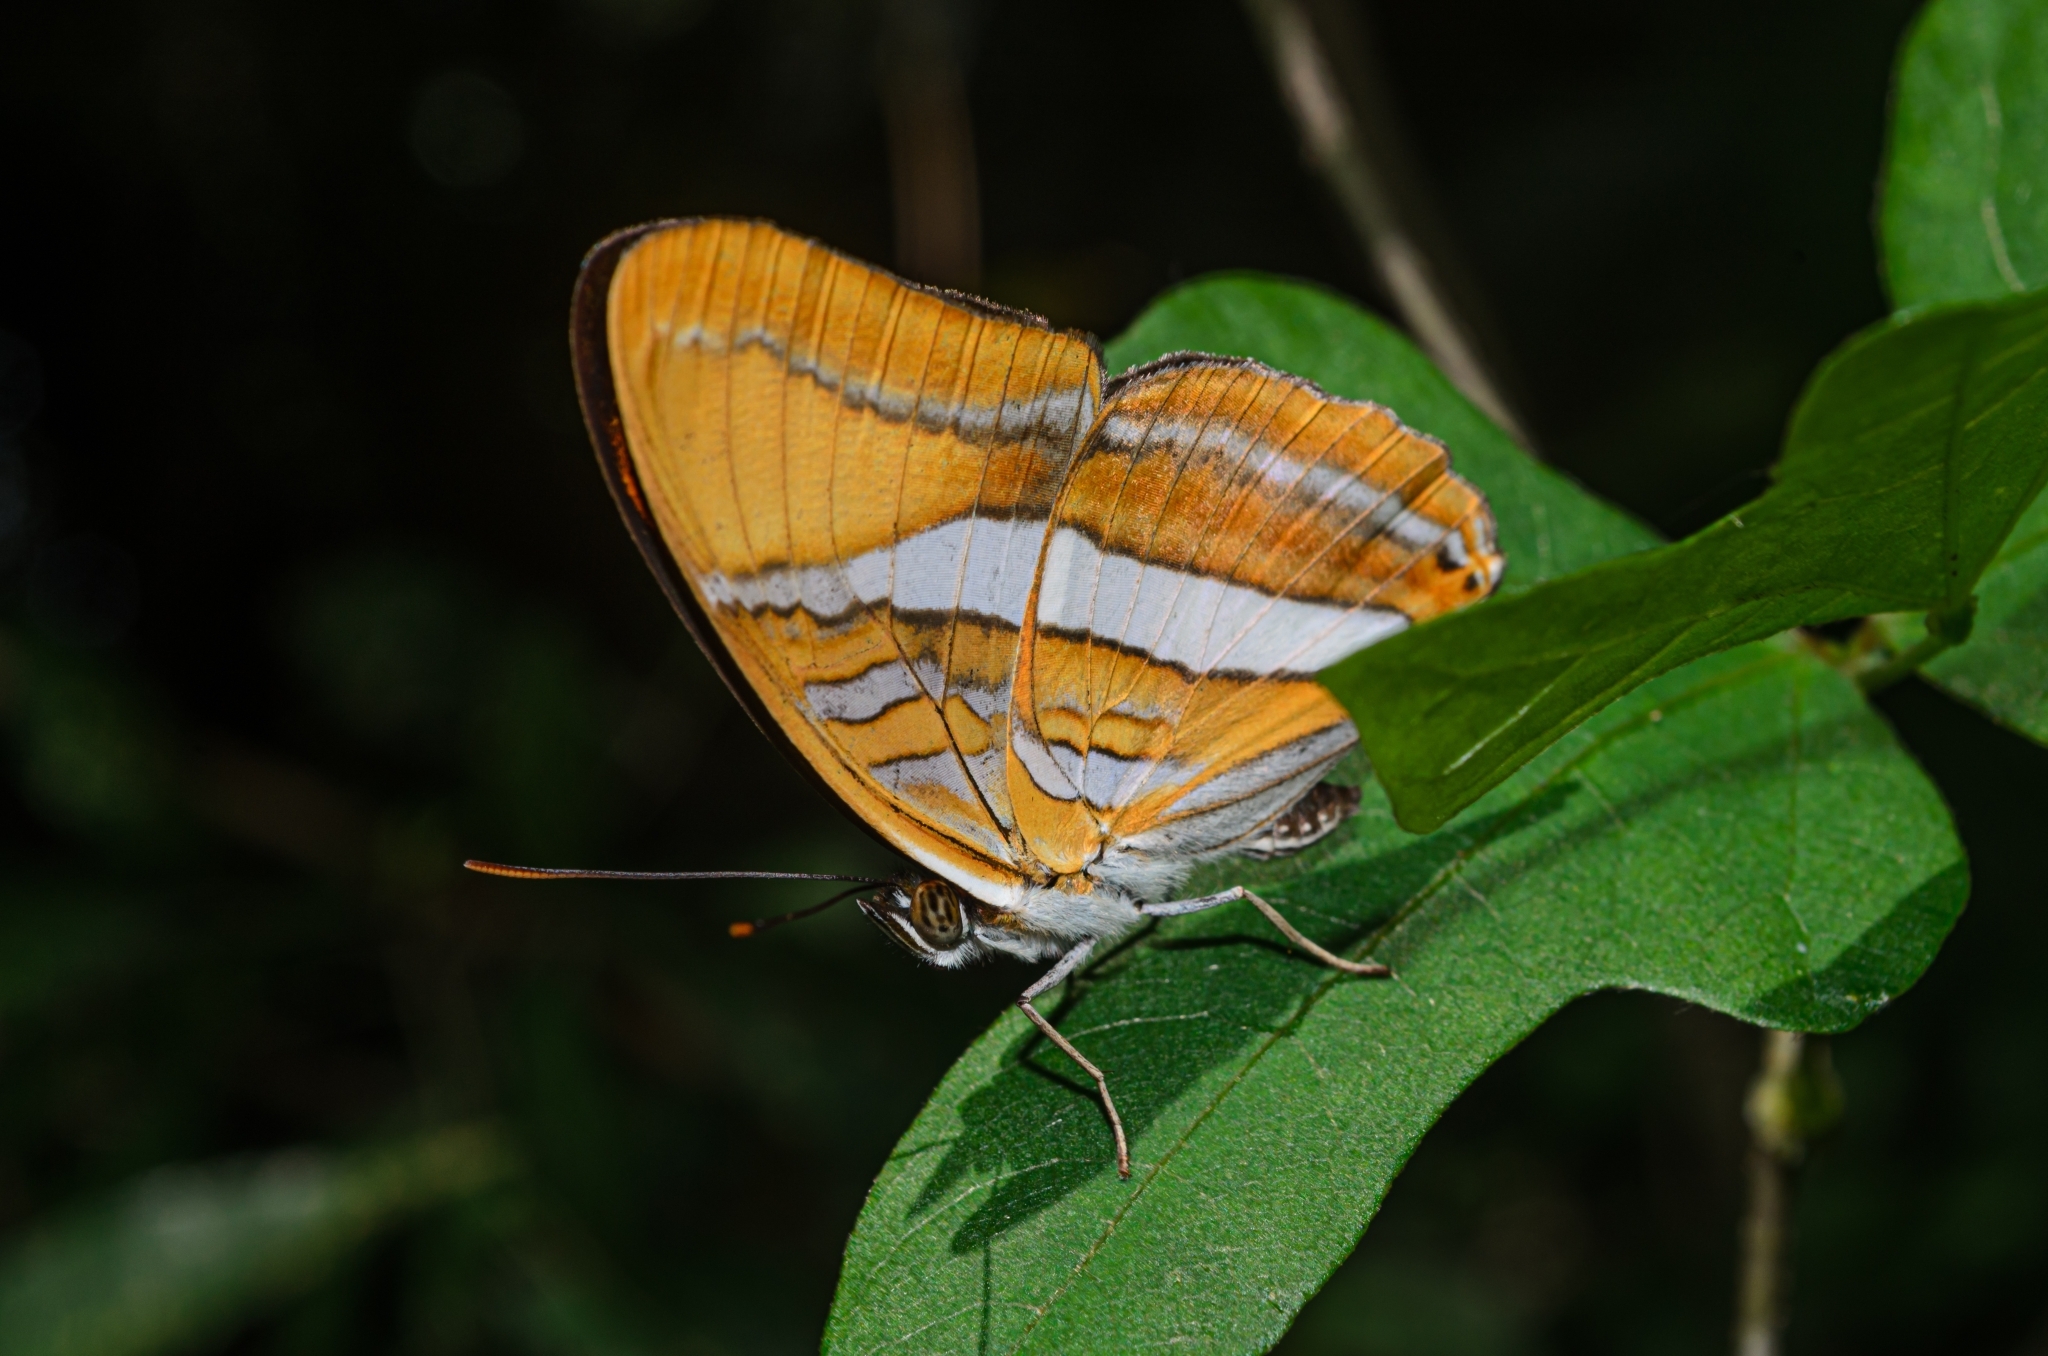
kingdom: Animalia
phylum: Arthropoda
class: Insecta
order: Lepidoptera
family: Nymphalidae
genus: Limenitis
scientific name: Limenitis mythra
